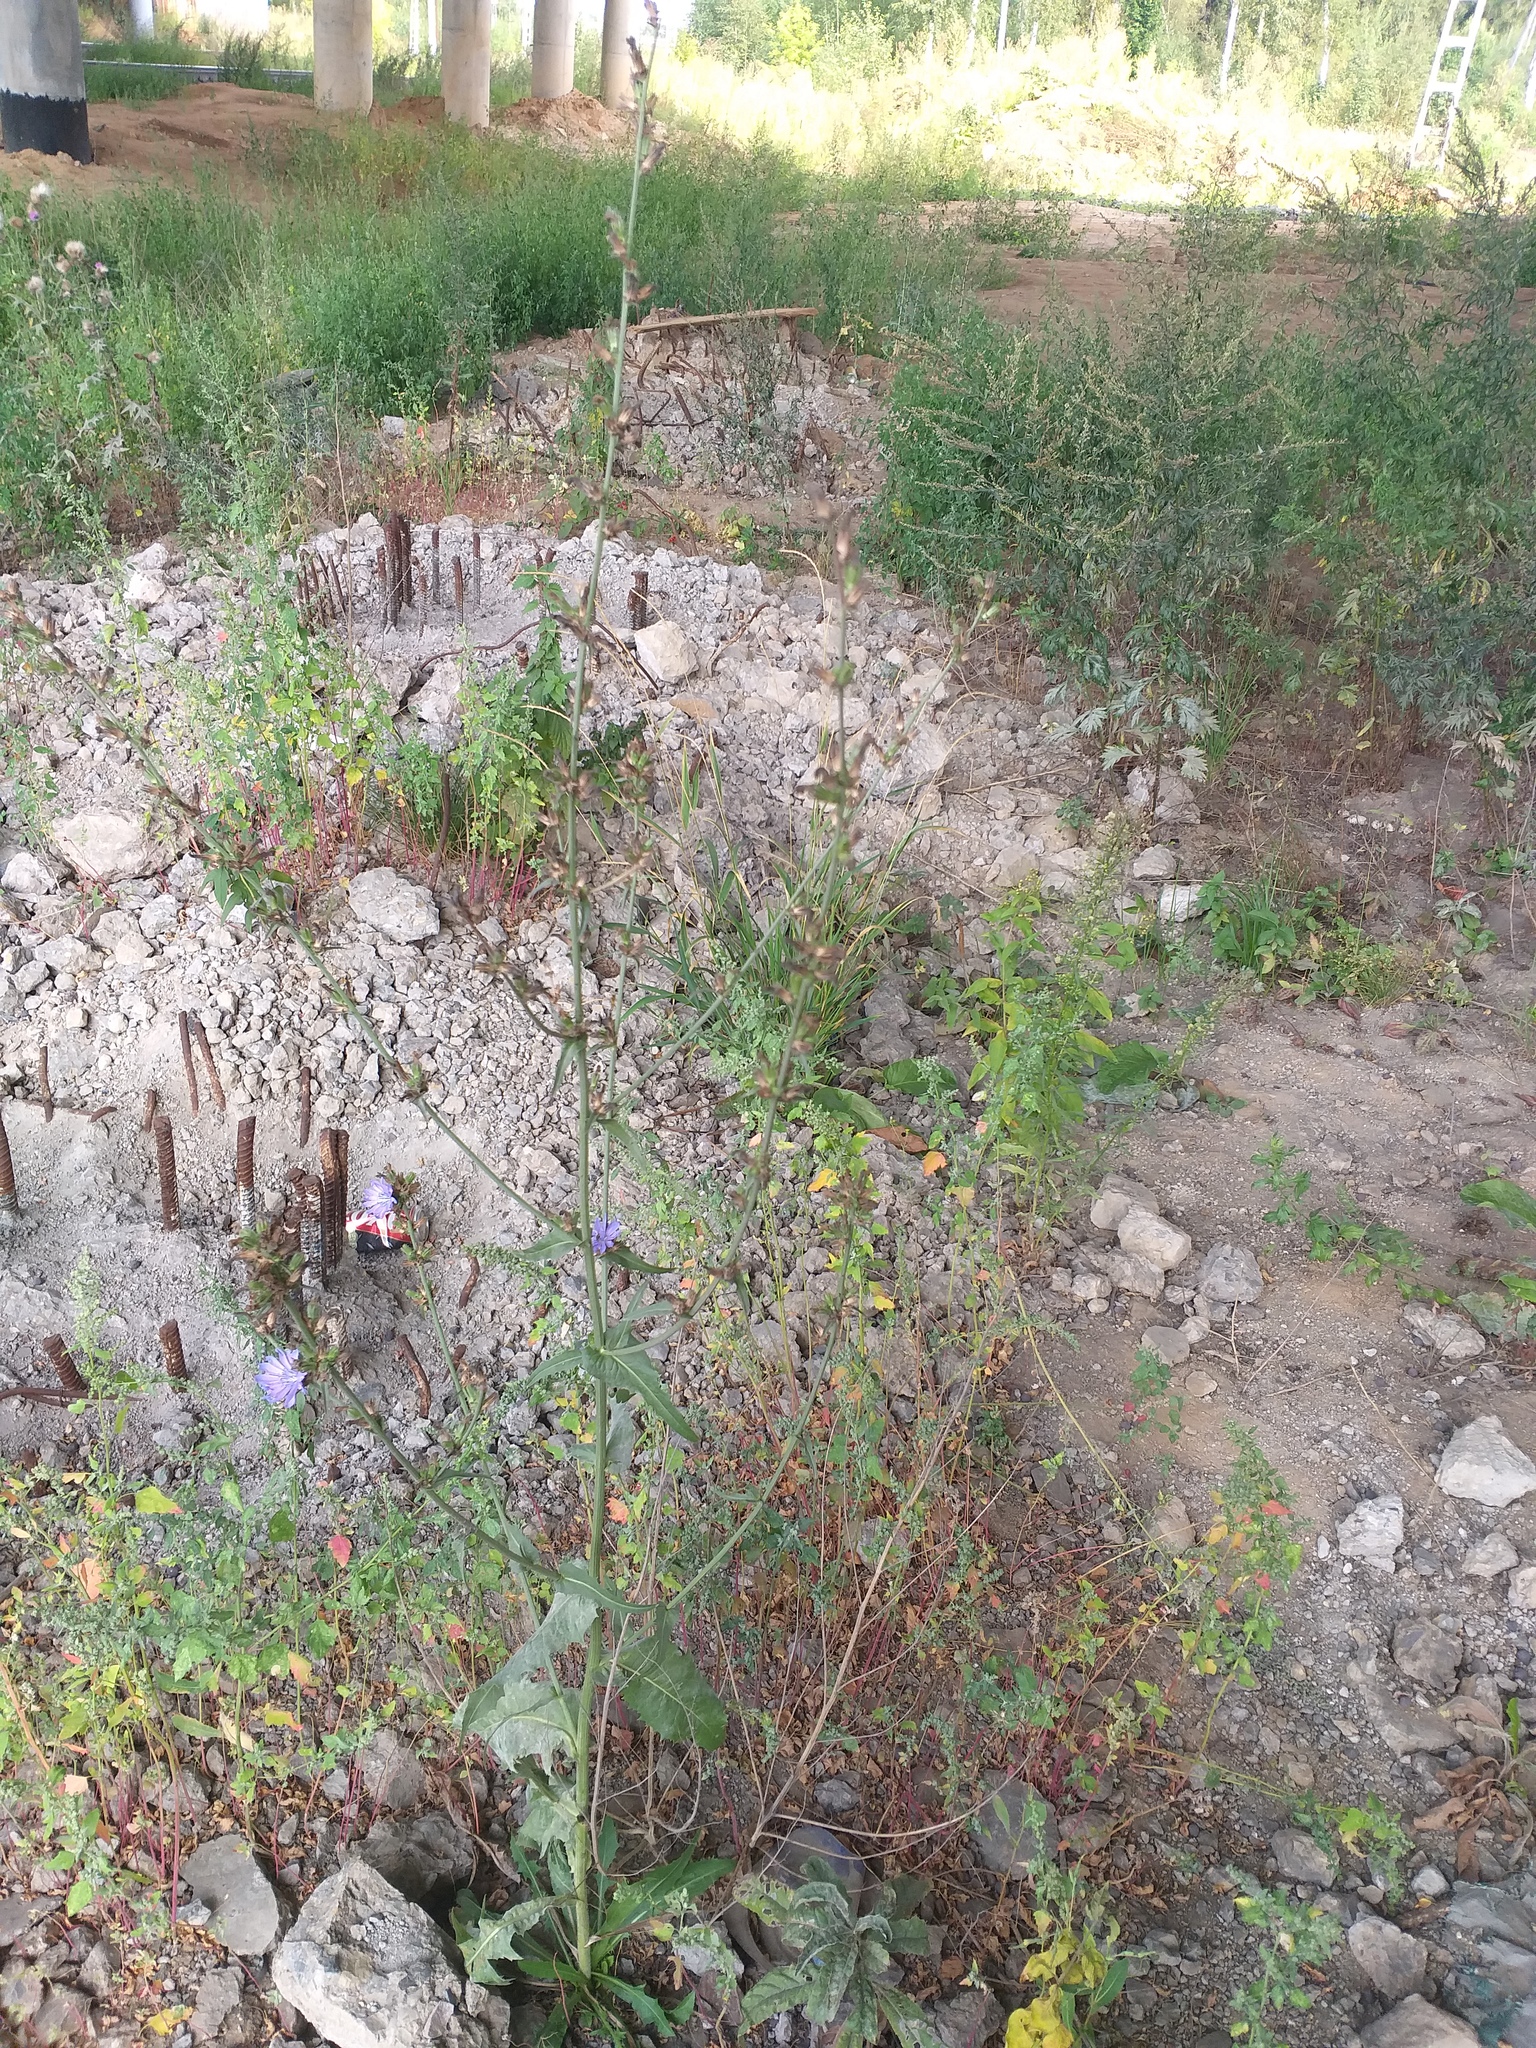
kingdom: Plantae
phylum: Tracheophyta
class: Magnoliopsida
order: Asterales
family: Asteraceae
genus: Cichorium
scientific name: Cichorium intybus
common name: Chicory
